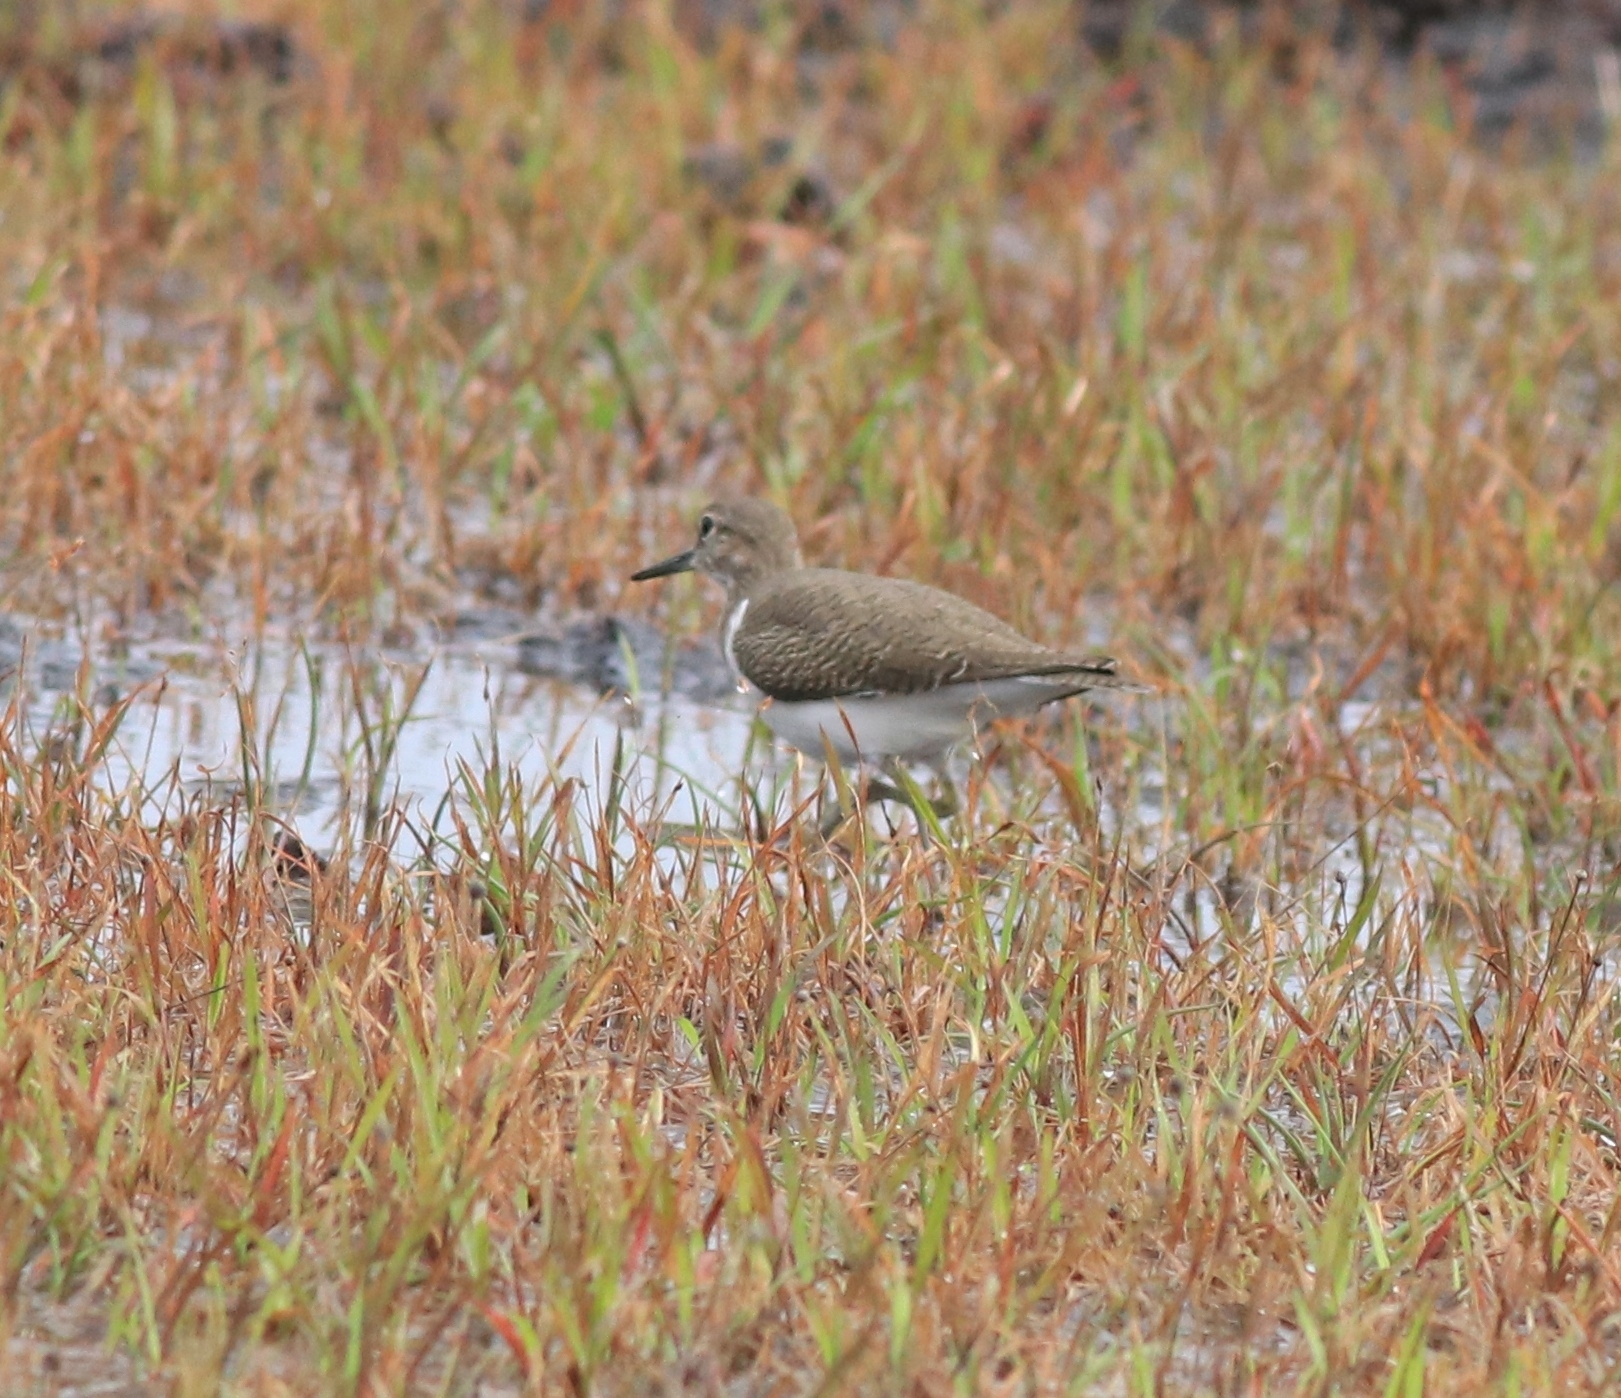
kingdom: Animalia
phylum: Chordata
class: Aves
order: Charadriiformes
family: Scolopacidae
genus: Actitis
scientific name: Actitis hypoleucos
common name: Common sandpiper
